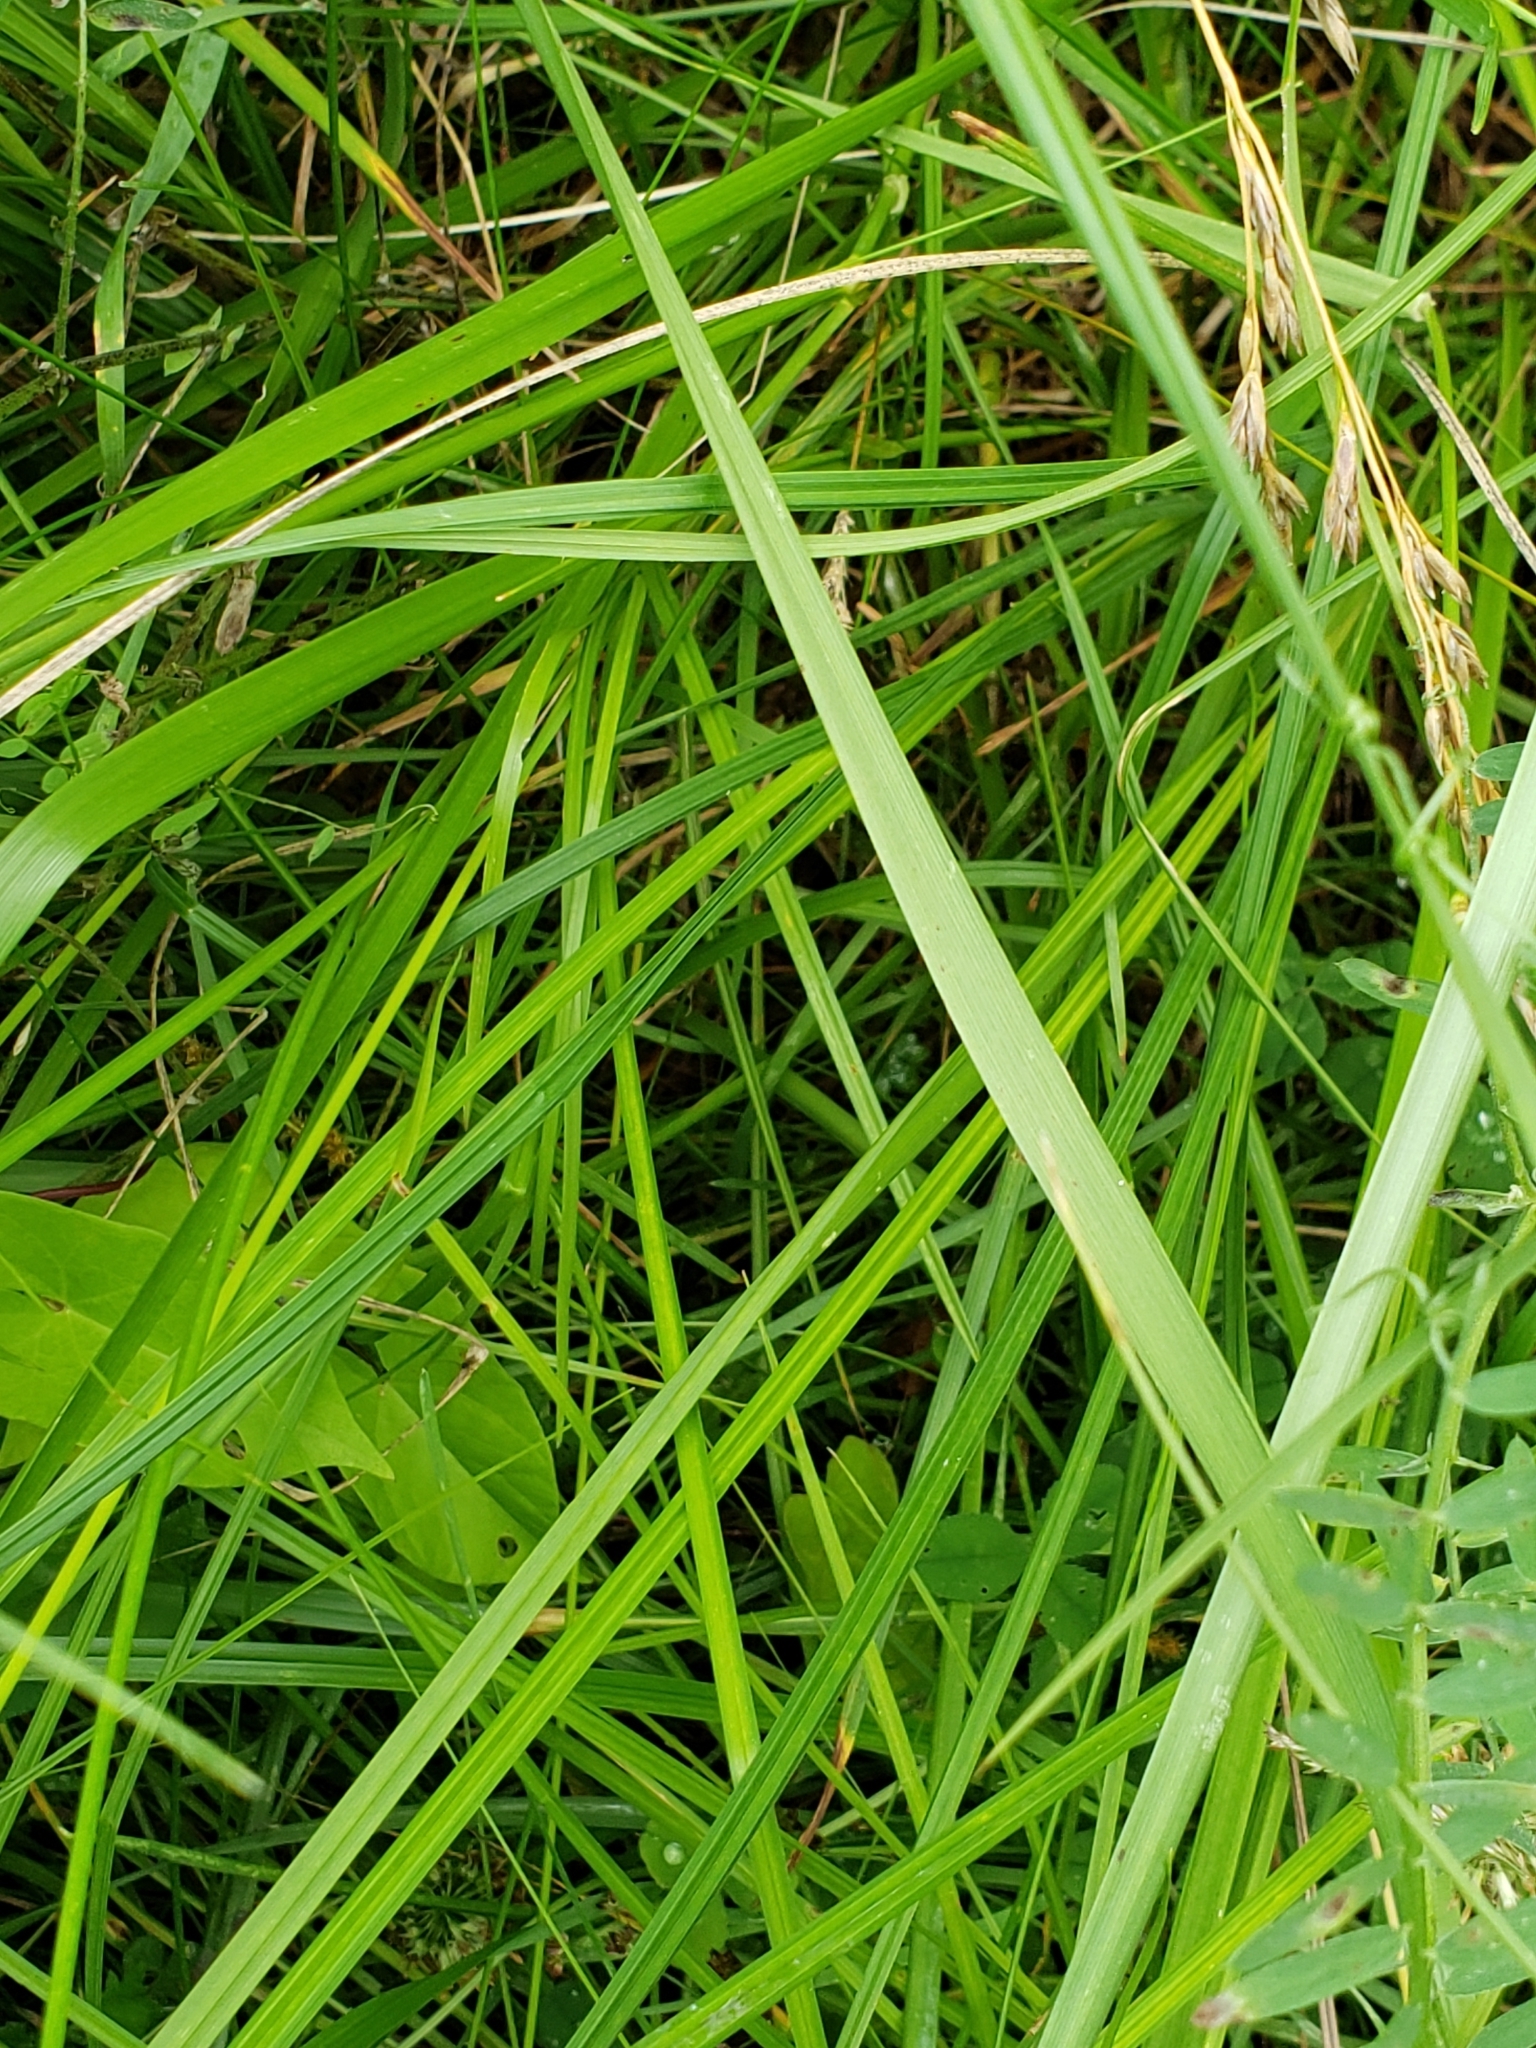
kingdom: Plantae
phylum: Tracheophyta
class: Liliopsida
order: Poales
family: Cyperaceae
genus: Carex
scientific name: Carex vulpinoidea
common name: American fox-sedge
